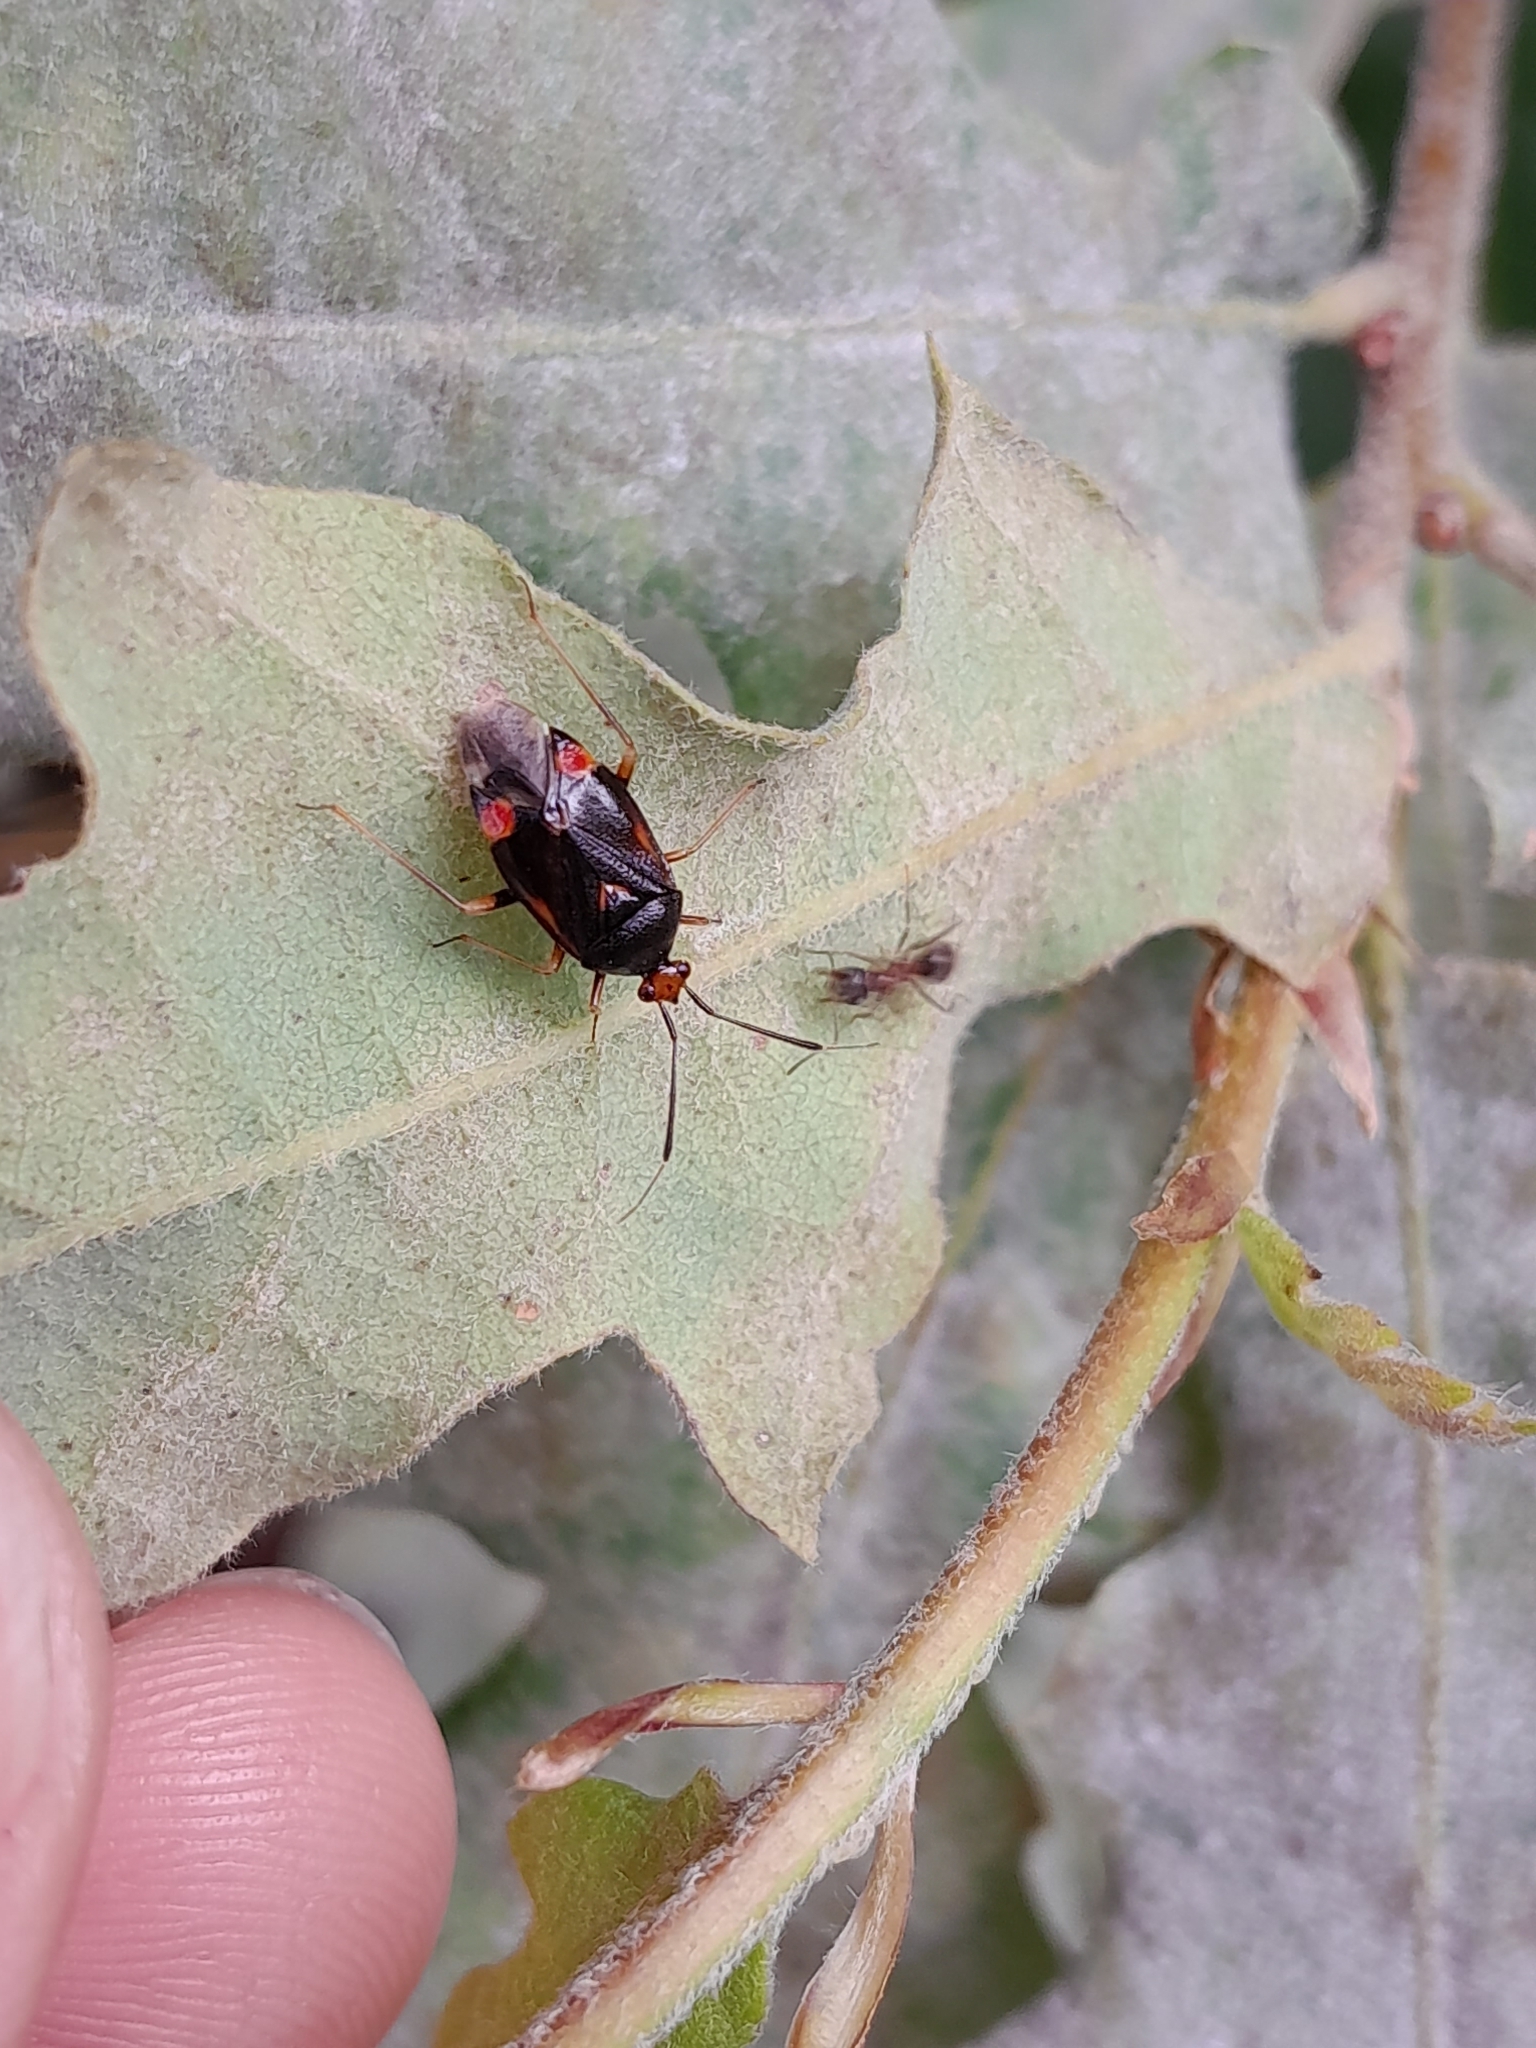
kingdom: Animalia
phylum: Arthropoda
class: Insecta
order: Hemiptera
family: Miridae
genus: Deraeocoris
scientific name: Deraeocoris ruber
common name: Plant bug
